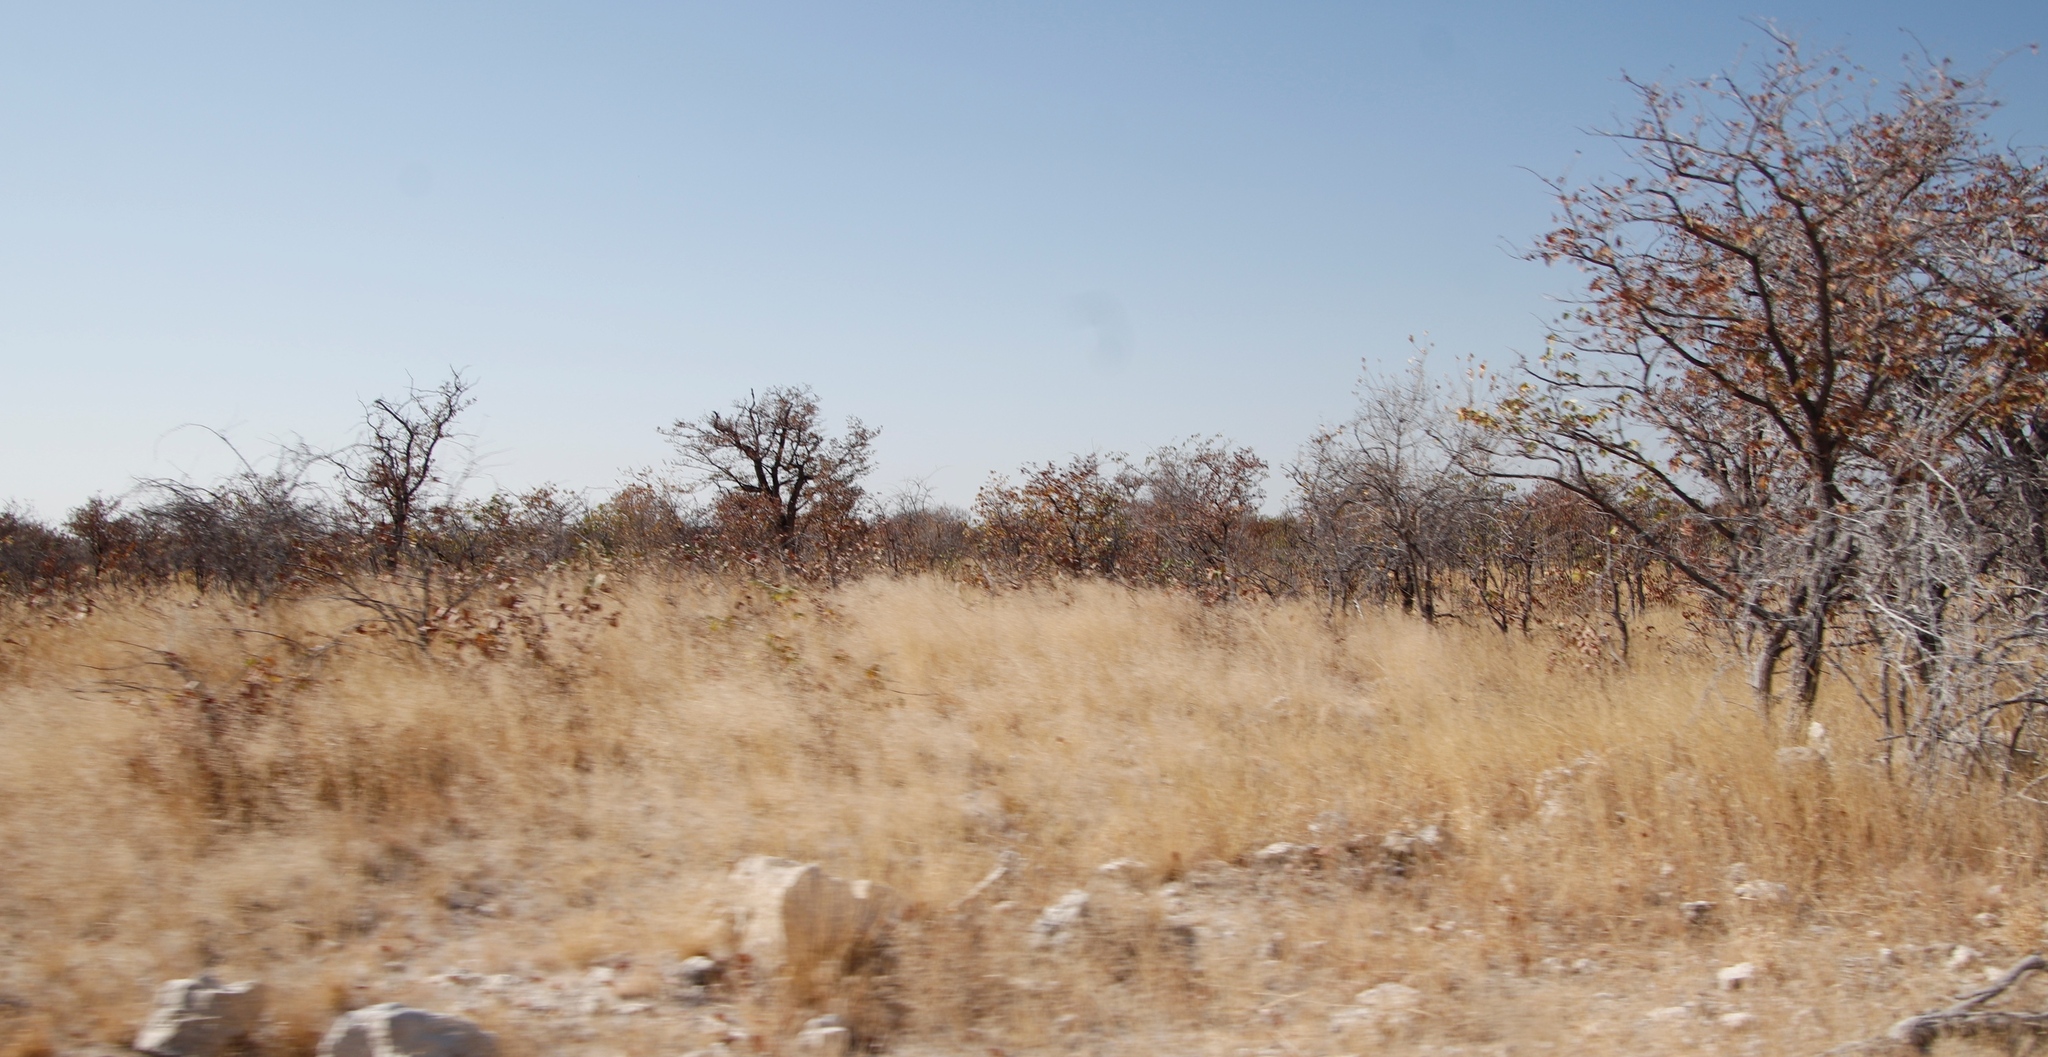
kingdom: Plantae
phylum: Tracheophyta
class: Magnoliopsida
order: Fabales
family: Fabaceae
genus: Colophospermum
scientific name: Colophospermum mopane
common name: Mopane
